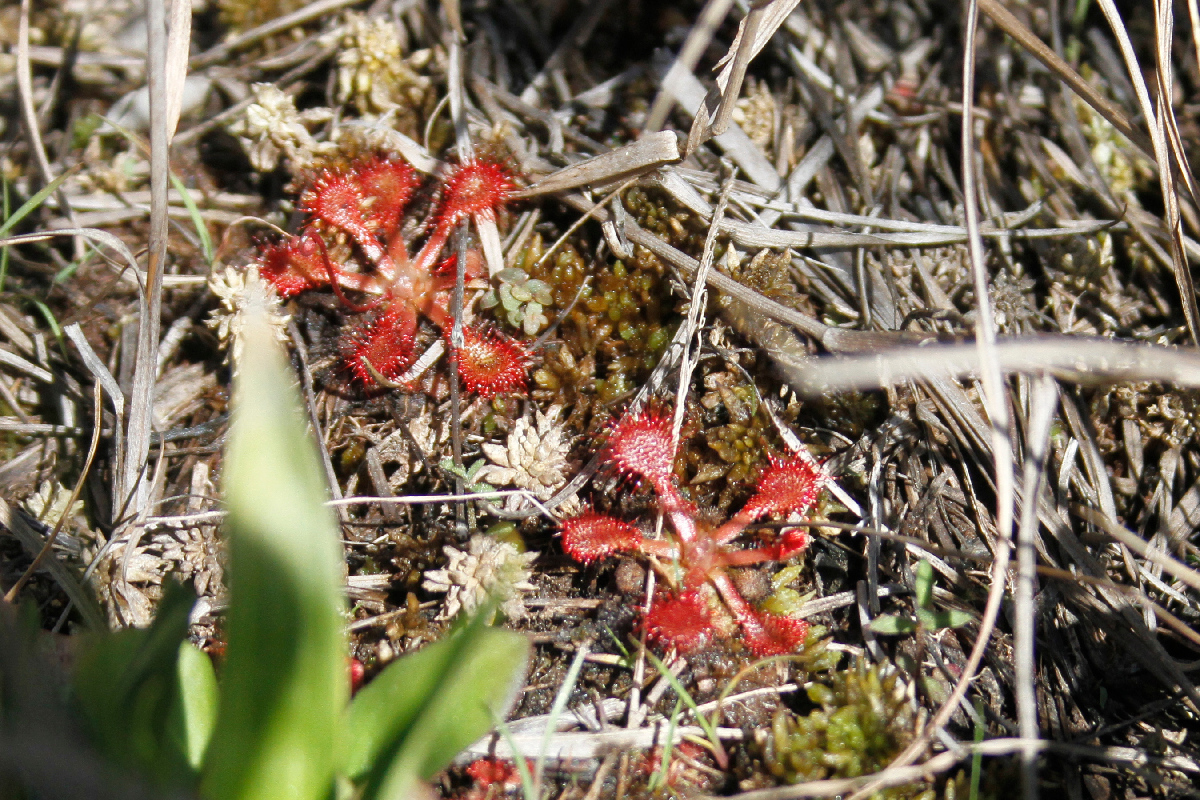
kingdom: Plantae
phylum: Tracheophyta
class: Magnoliopsida
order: Caryophyllales
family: Droseraceae
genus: Drosera
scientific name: Drosera capillaris
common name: Pink sundew
